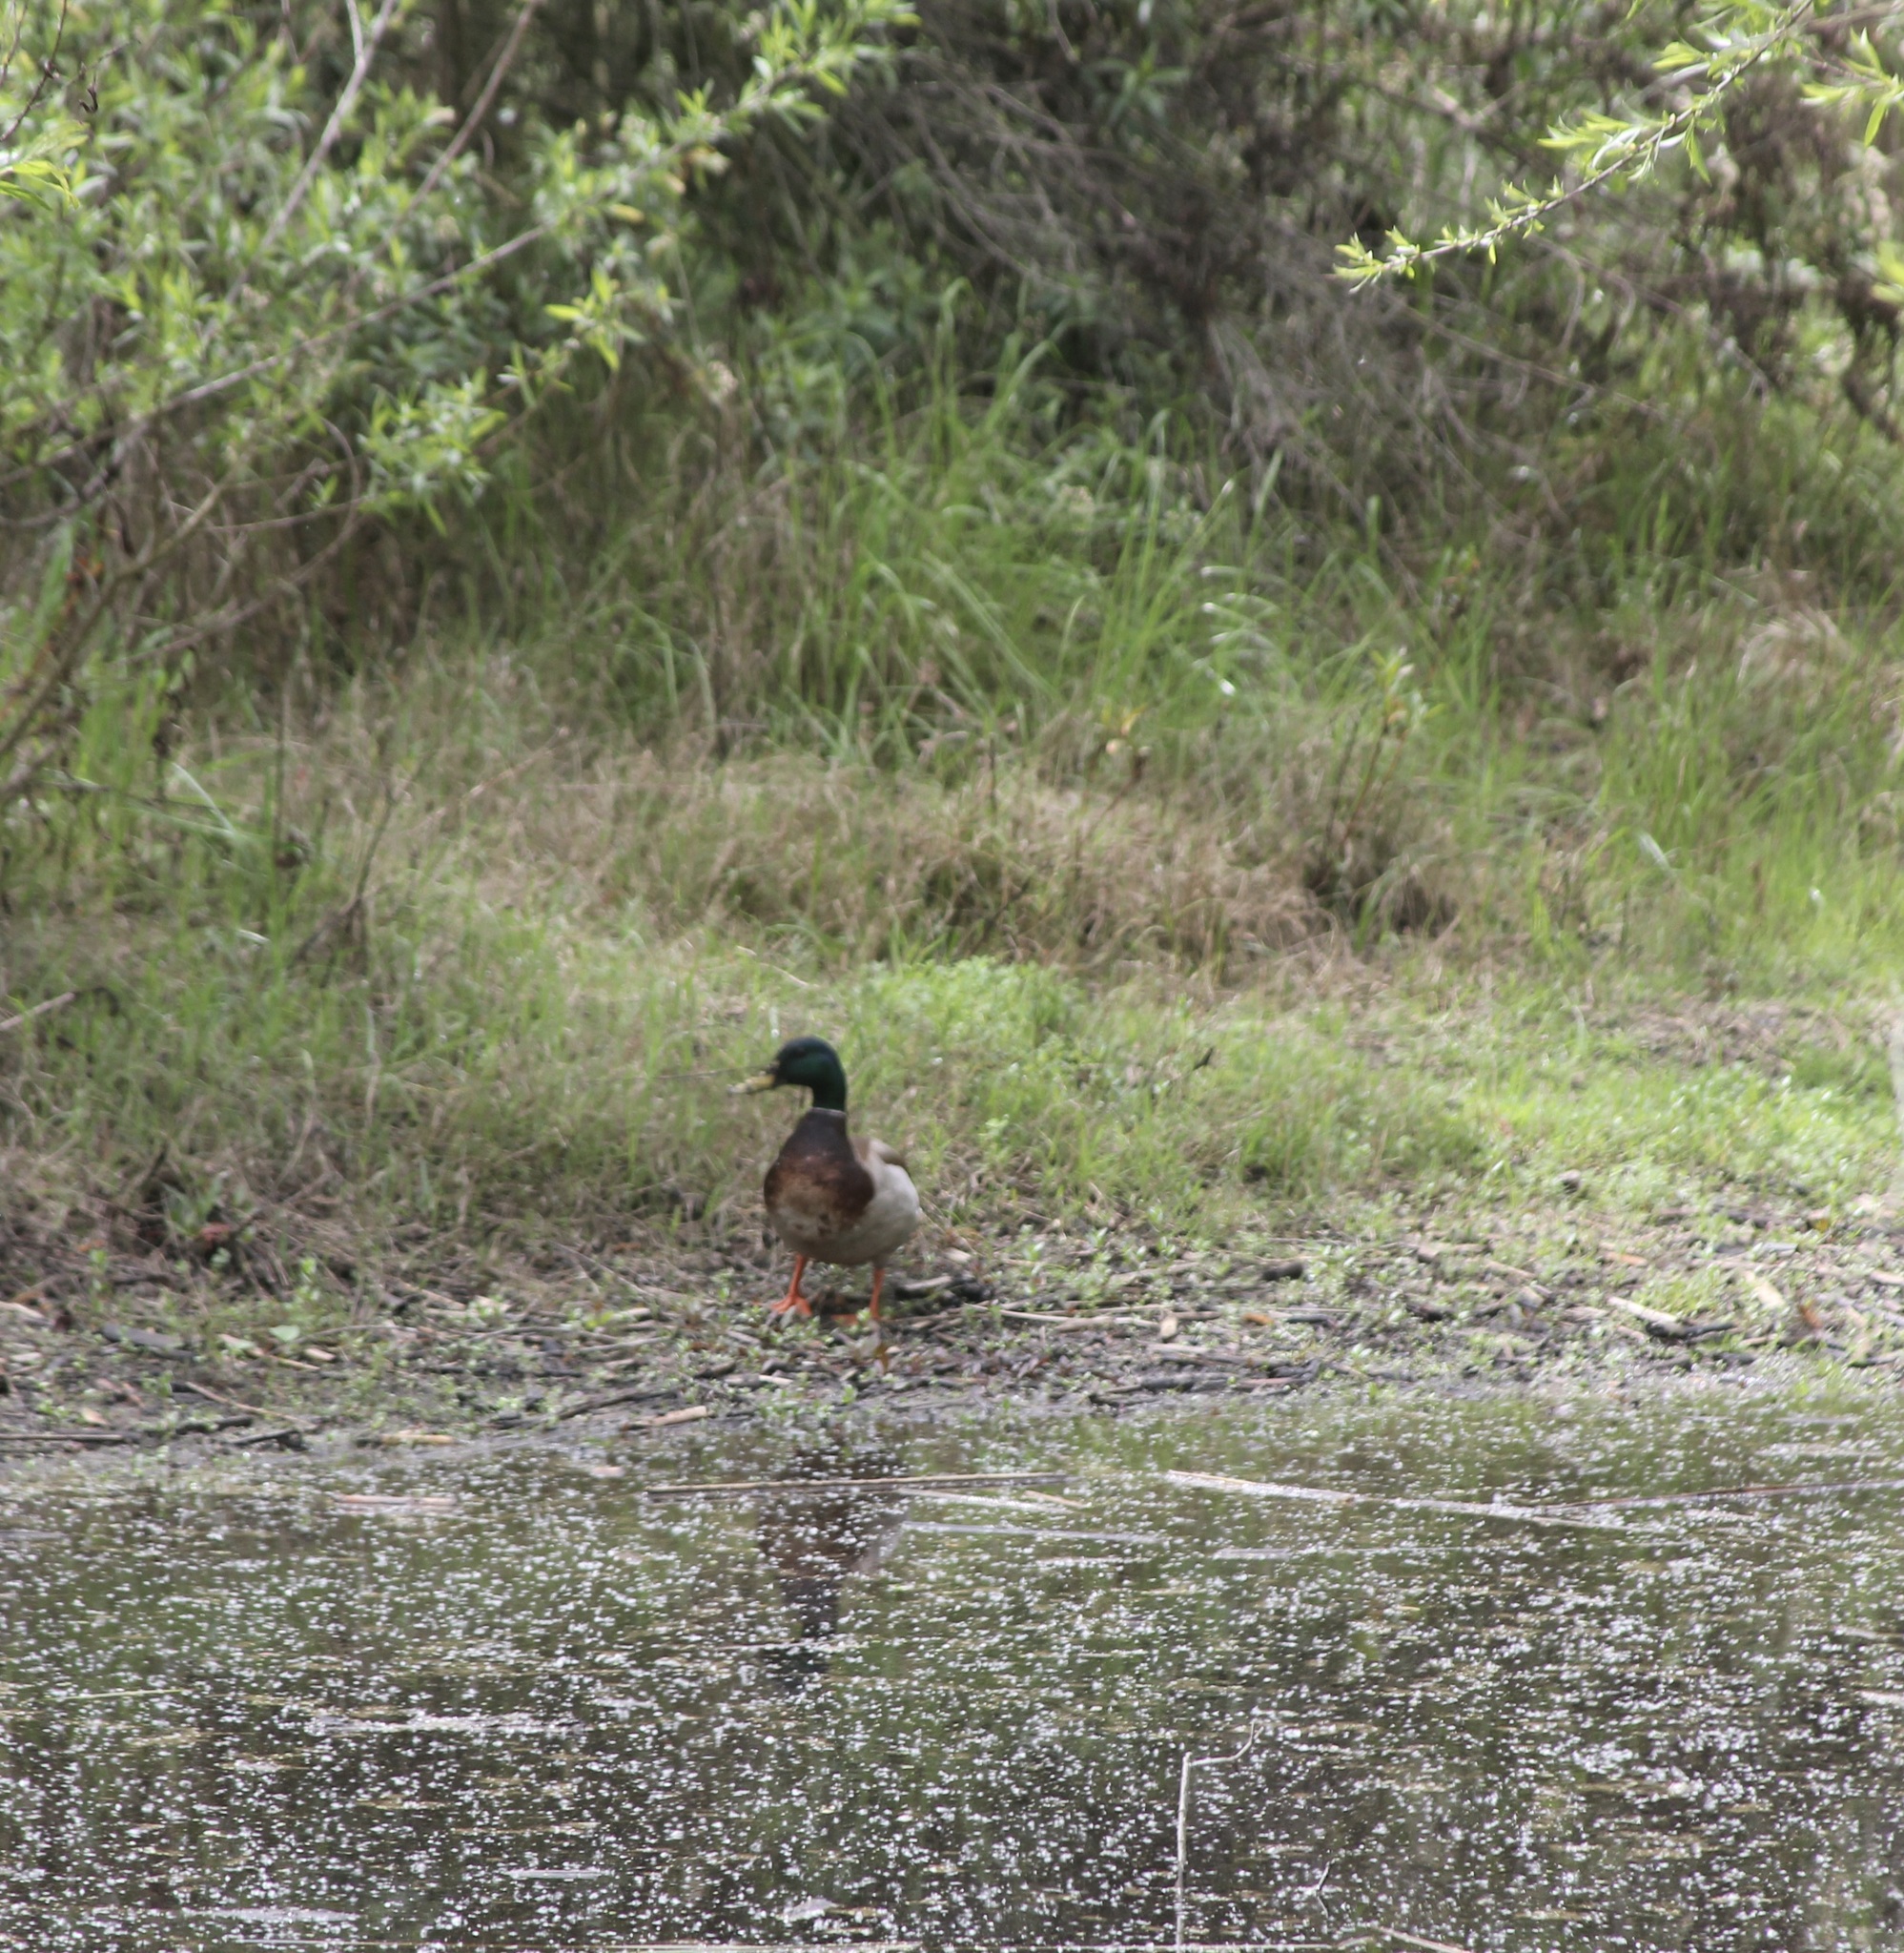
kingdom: Animalia
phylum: Chordata
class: Aves
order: Anseriformes
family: Anatidae
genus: Anas
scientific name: Anas platyrhynchos
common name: Mallard
